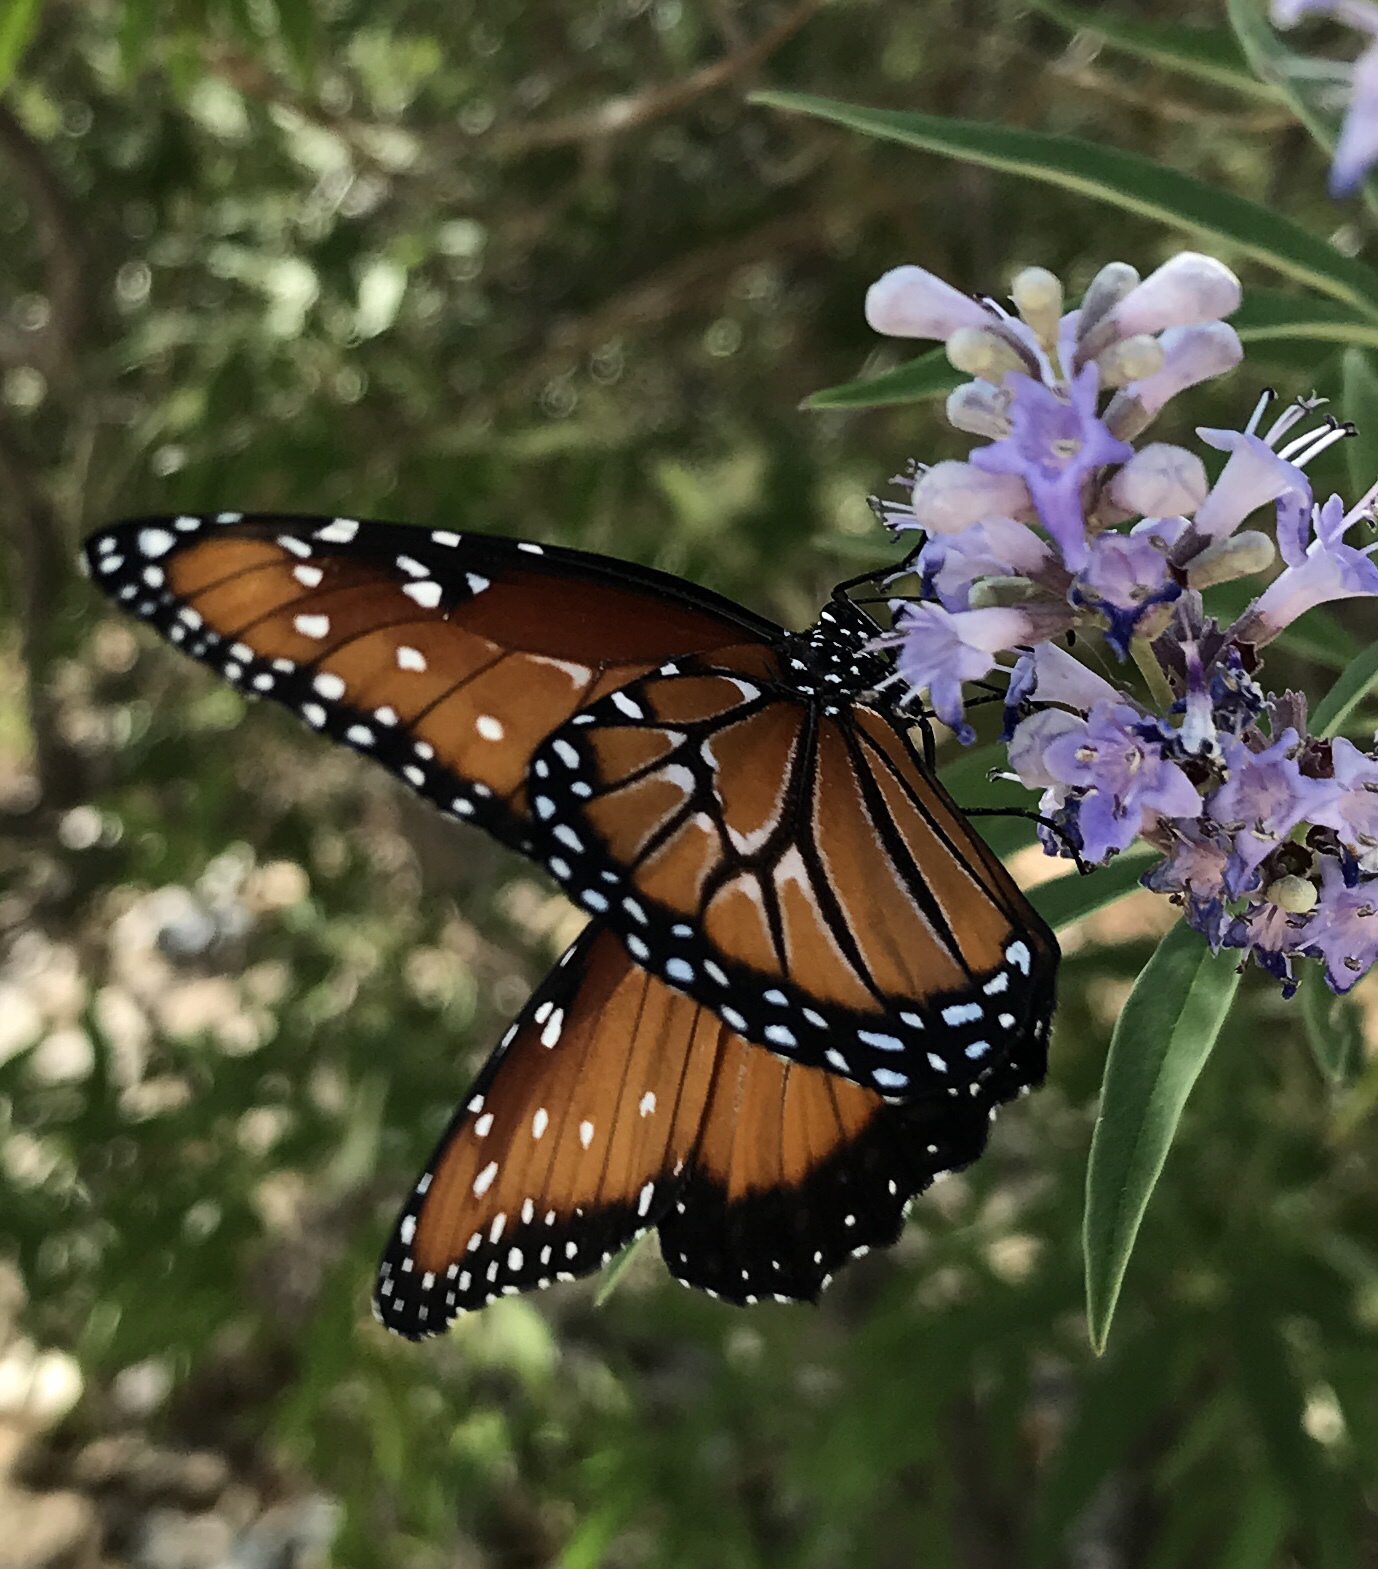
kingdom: Animalia
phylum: Arthropoda
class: Insecta
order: Lepidoptera
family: Nymphalidae
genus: Danaus
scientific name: Danaus gilippus
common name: Queen
